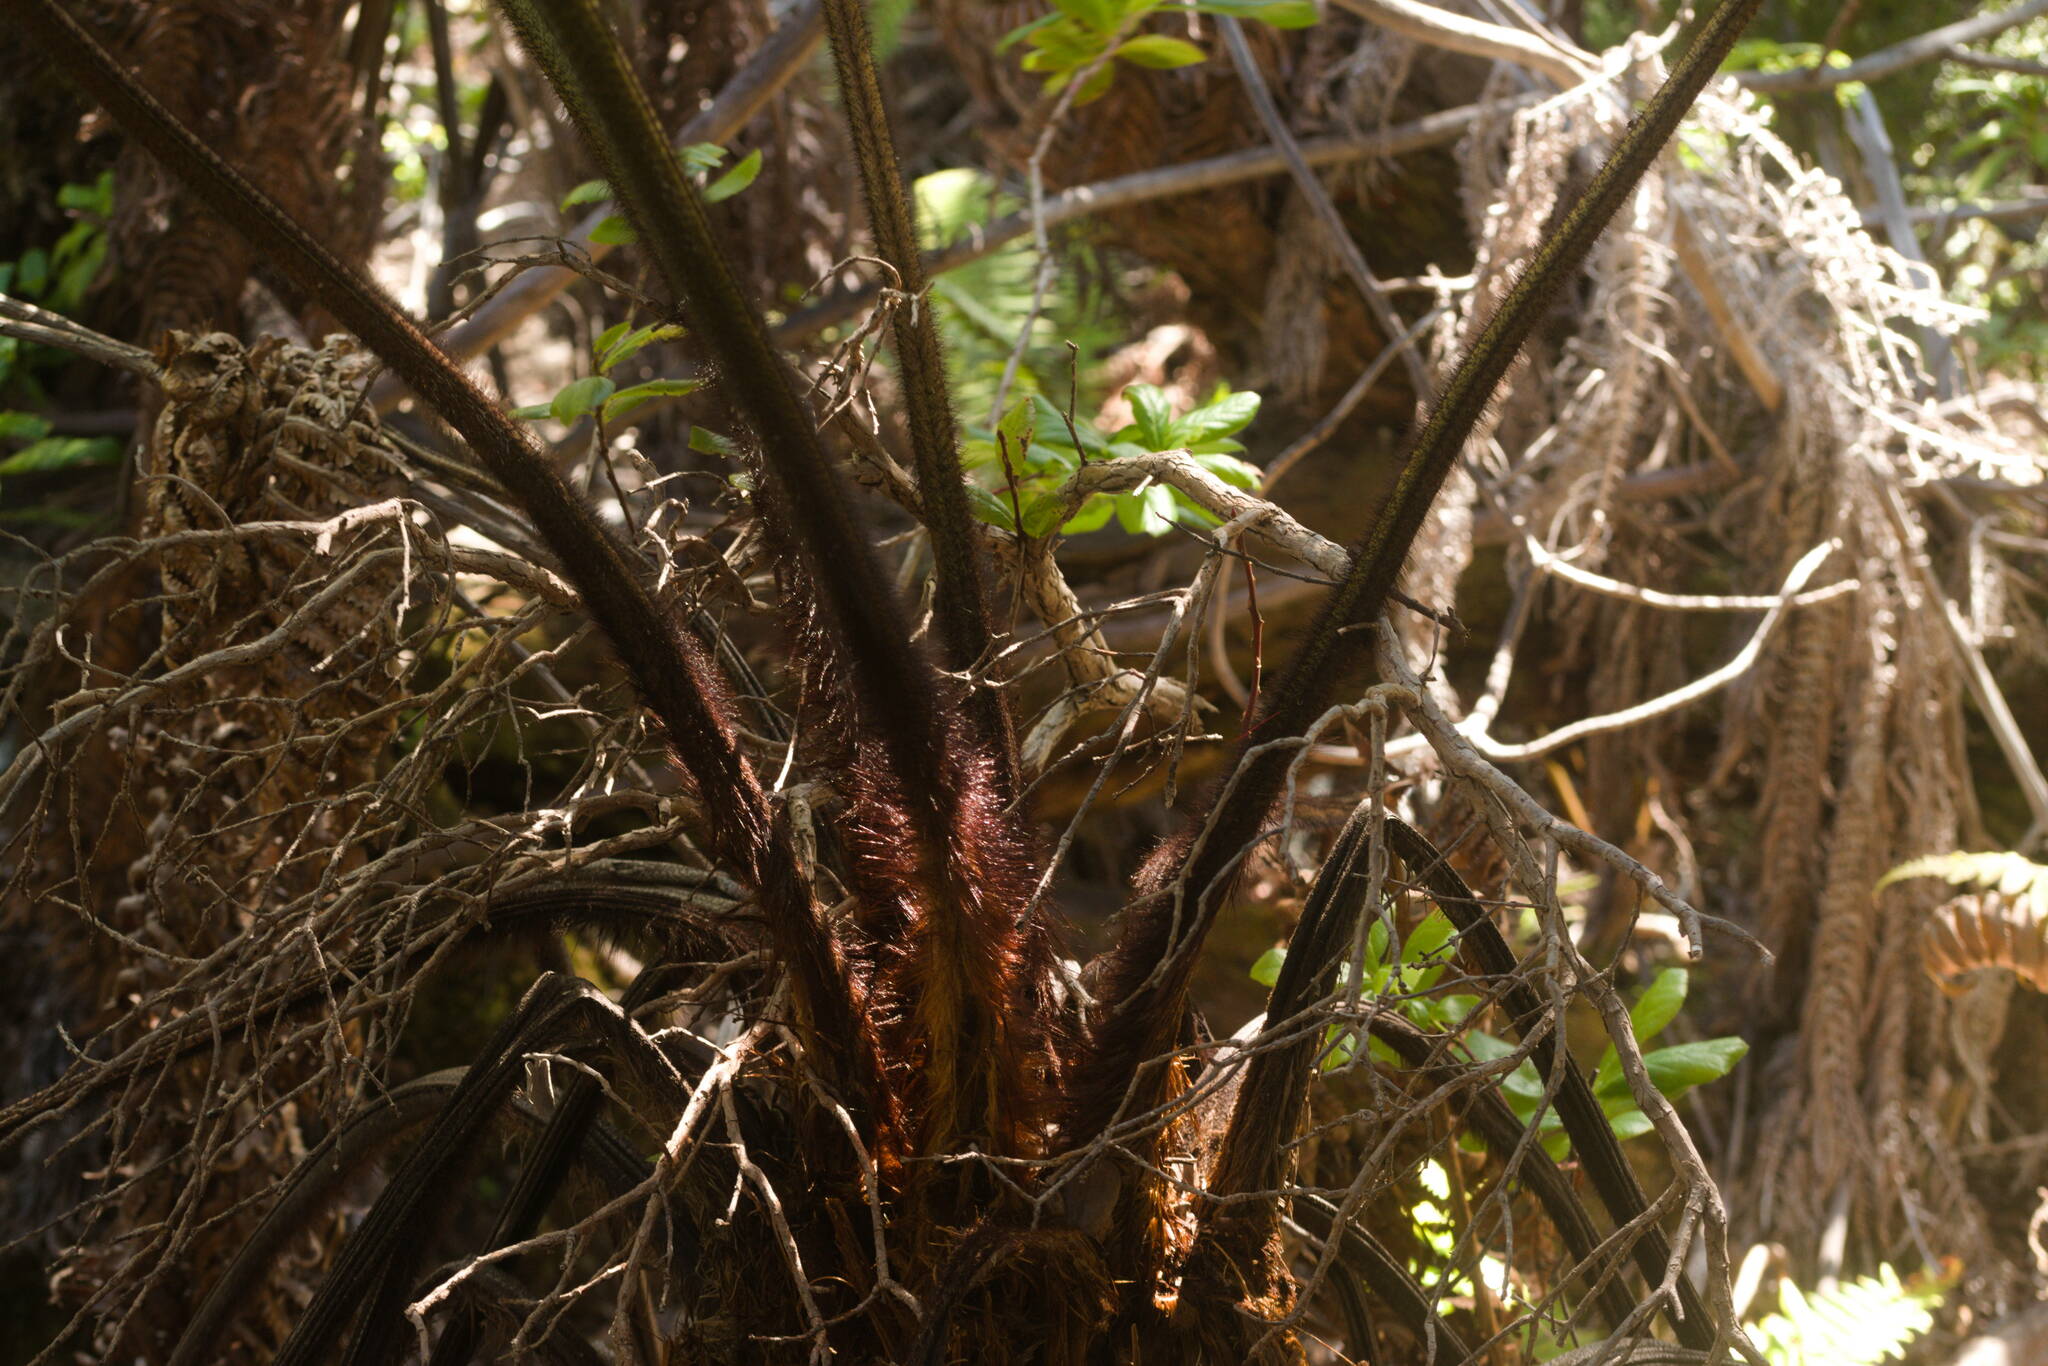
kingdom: Plantae
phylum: Tracheophyta
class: Polypodiopsida
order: Cyatheales
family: Cibotiaceae
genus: Cibotium
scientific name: Cibotium menziesii
